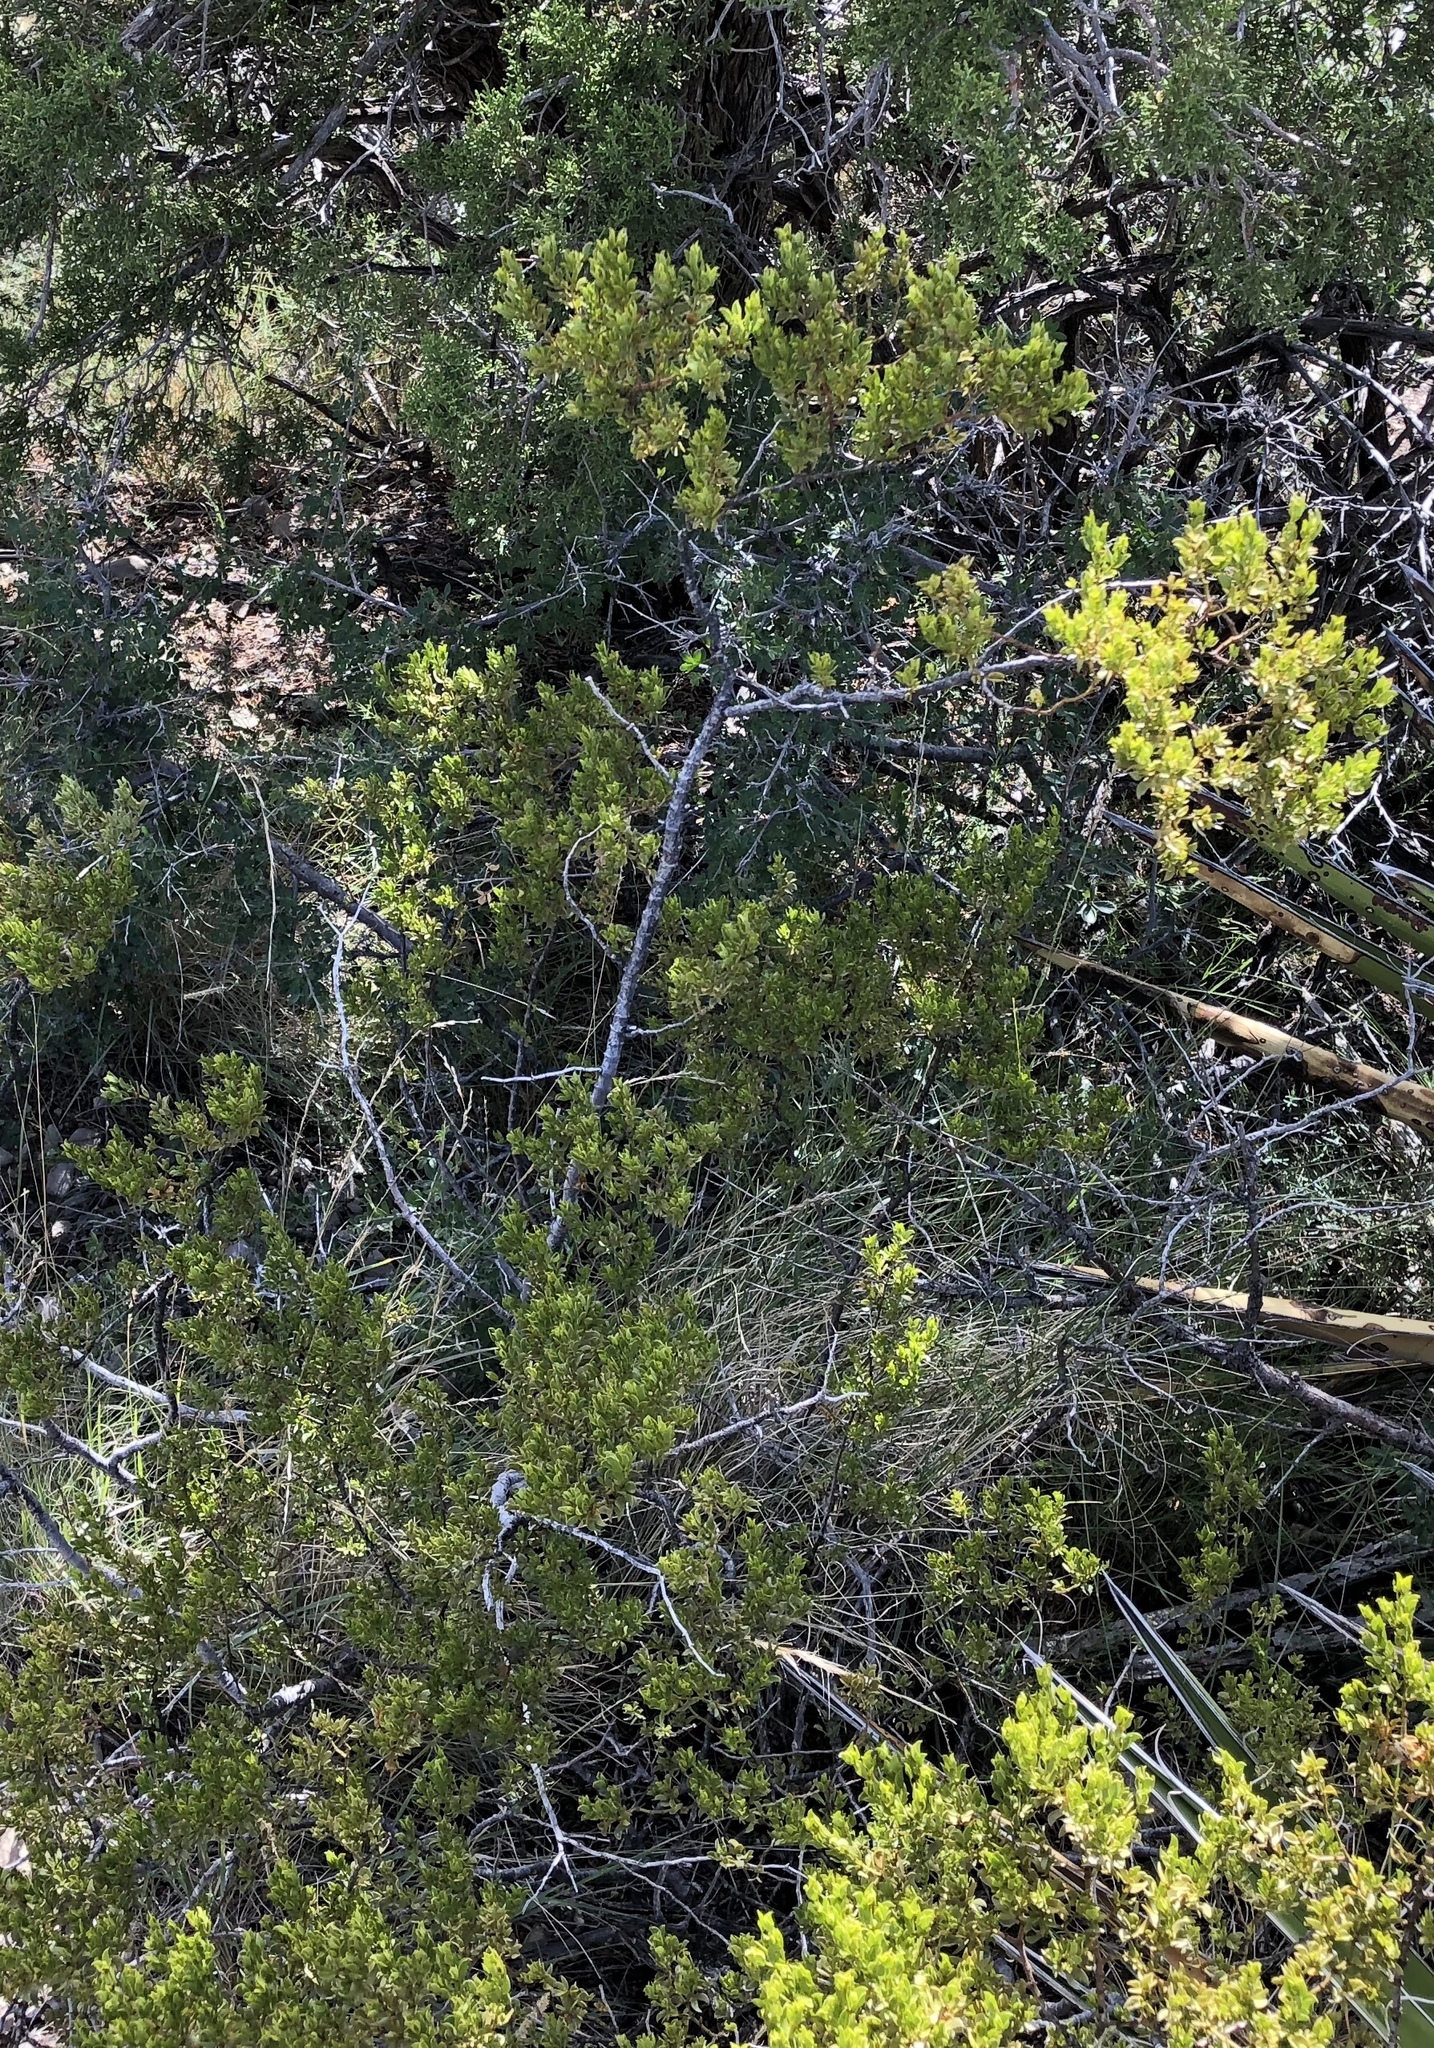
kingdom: Plantae
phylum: Tracheophyta
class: Magnoliopsida
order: Zygophyllales
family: Zygophyllaceae
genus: Larrea
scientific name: Larrea tridentata
